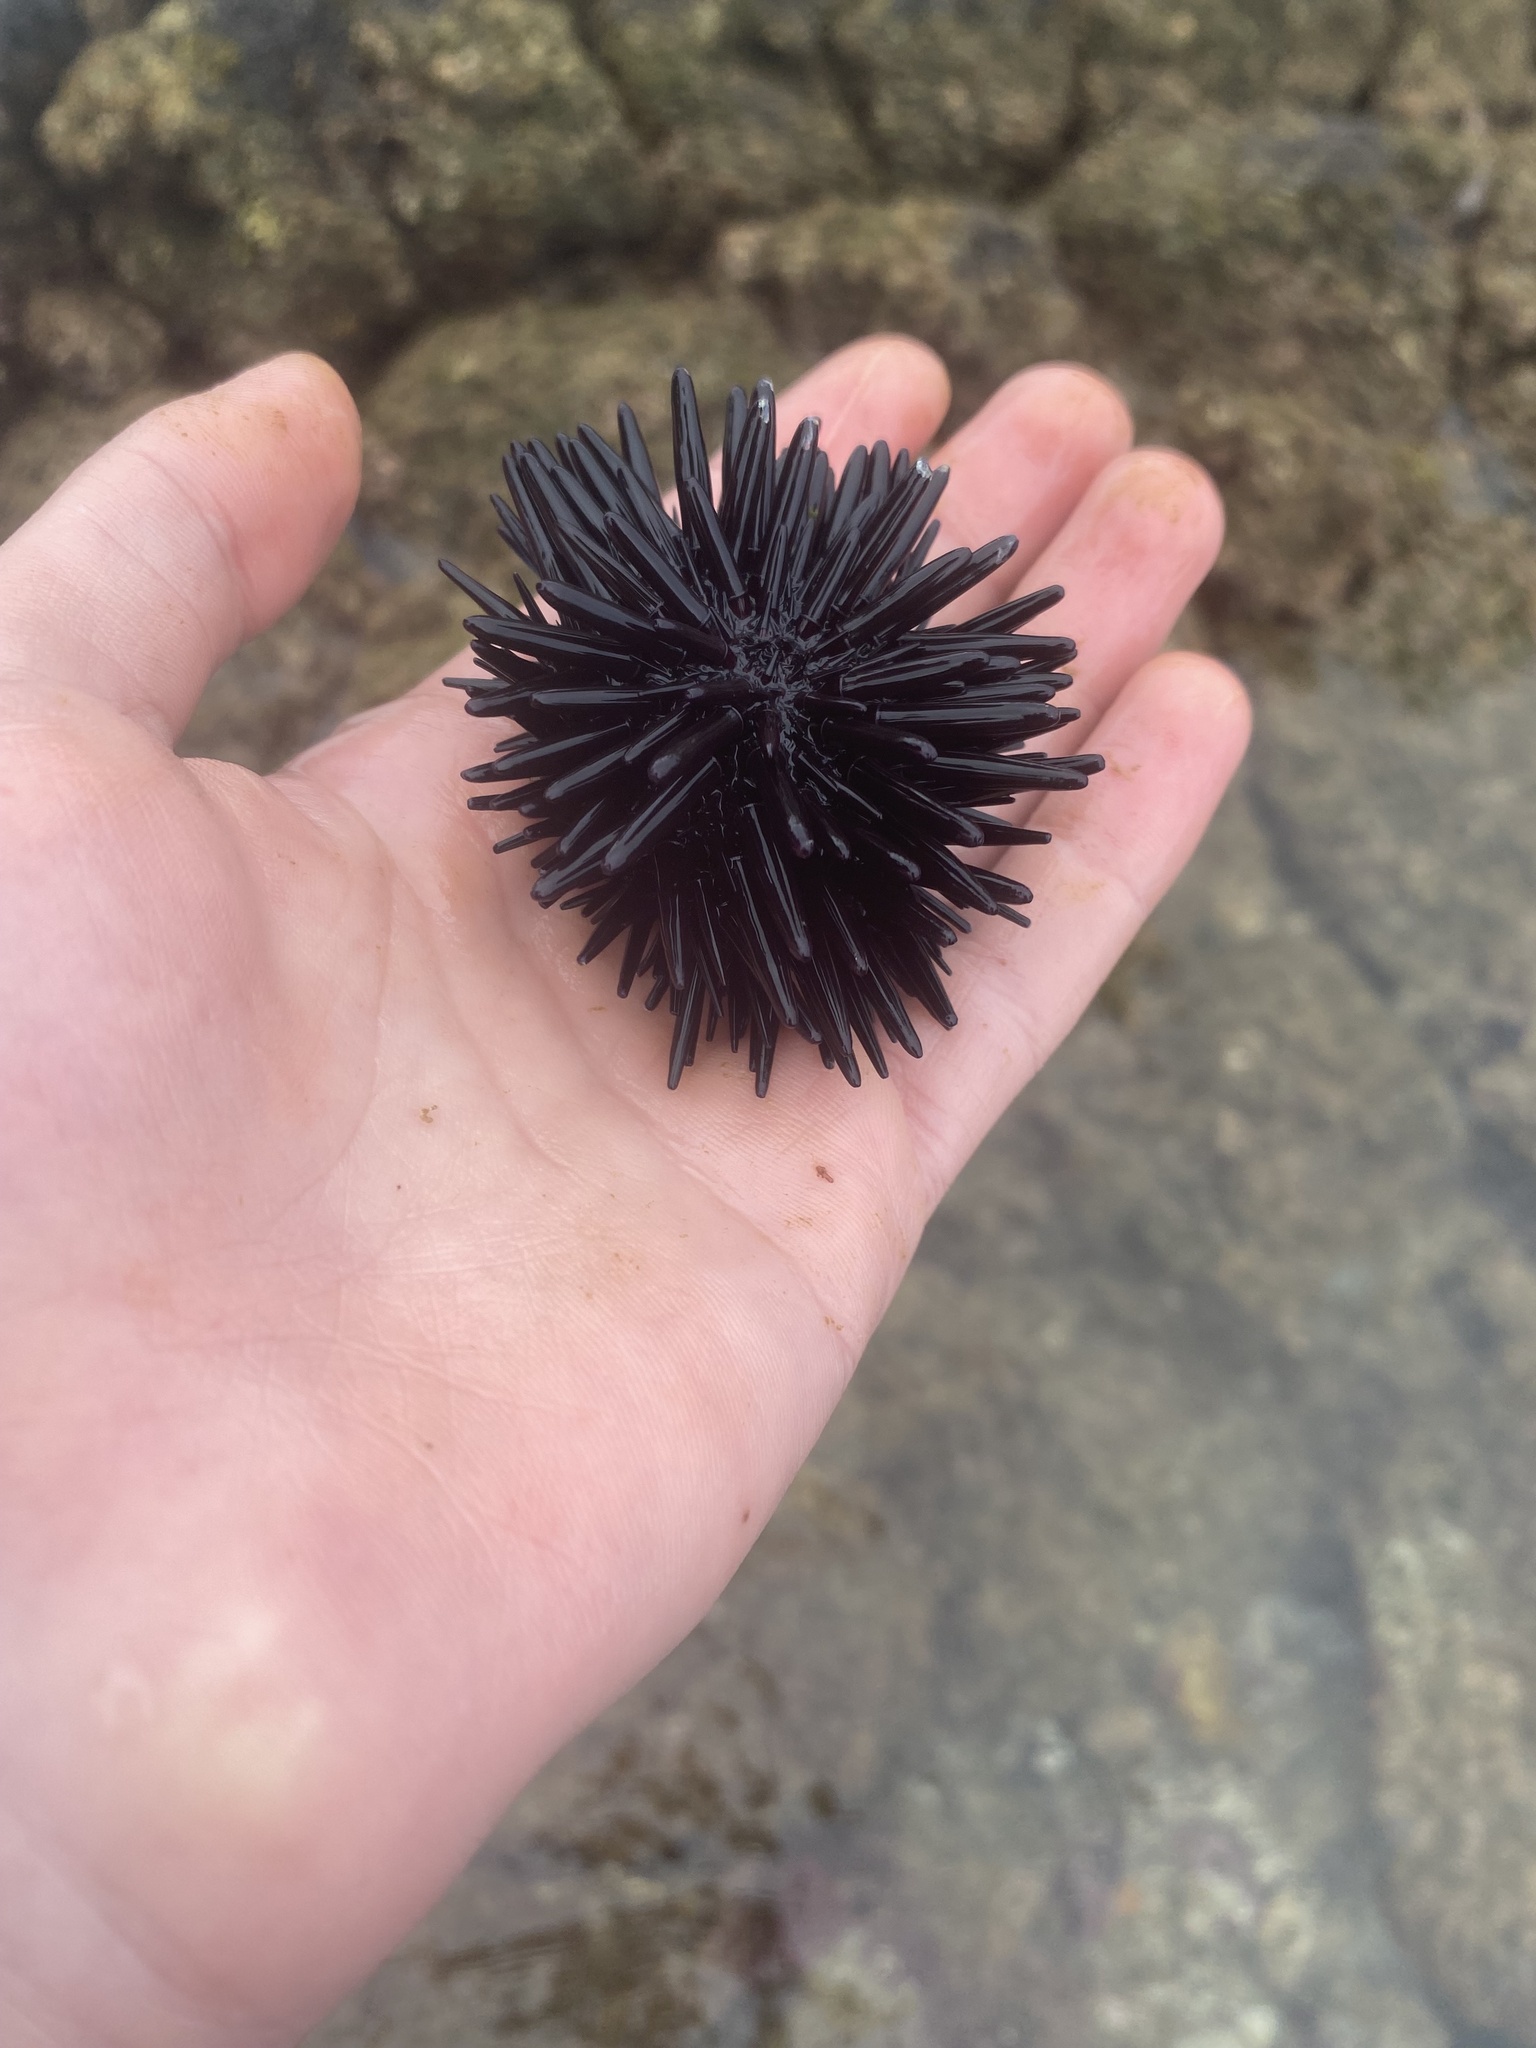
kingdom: Animalia
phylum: Echinodermata
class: Echinoidea
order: Camarodonta
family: Echinometridae
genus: Echinometra
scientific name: Echinometra oblonga
